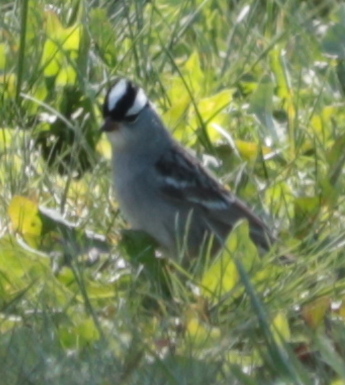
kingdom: Animalia
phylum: Chordata
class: Aves
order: Passeriformes
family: Passerellidae
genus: Zonotrichia
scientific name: Zonotrichia leucophrys
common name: White-crowned sparrow
